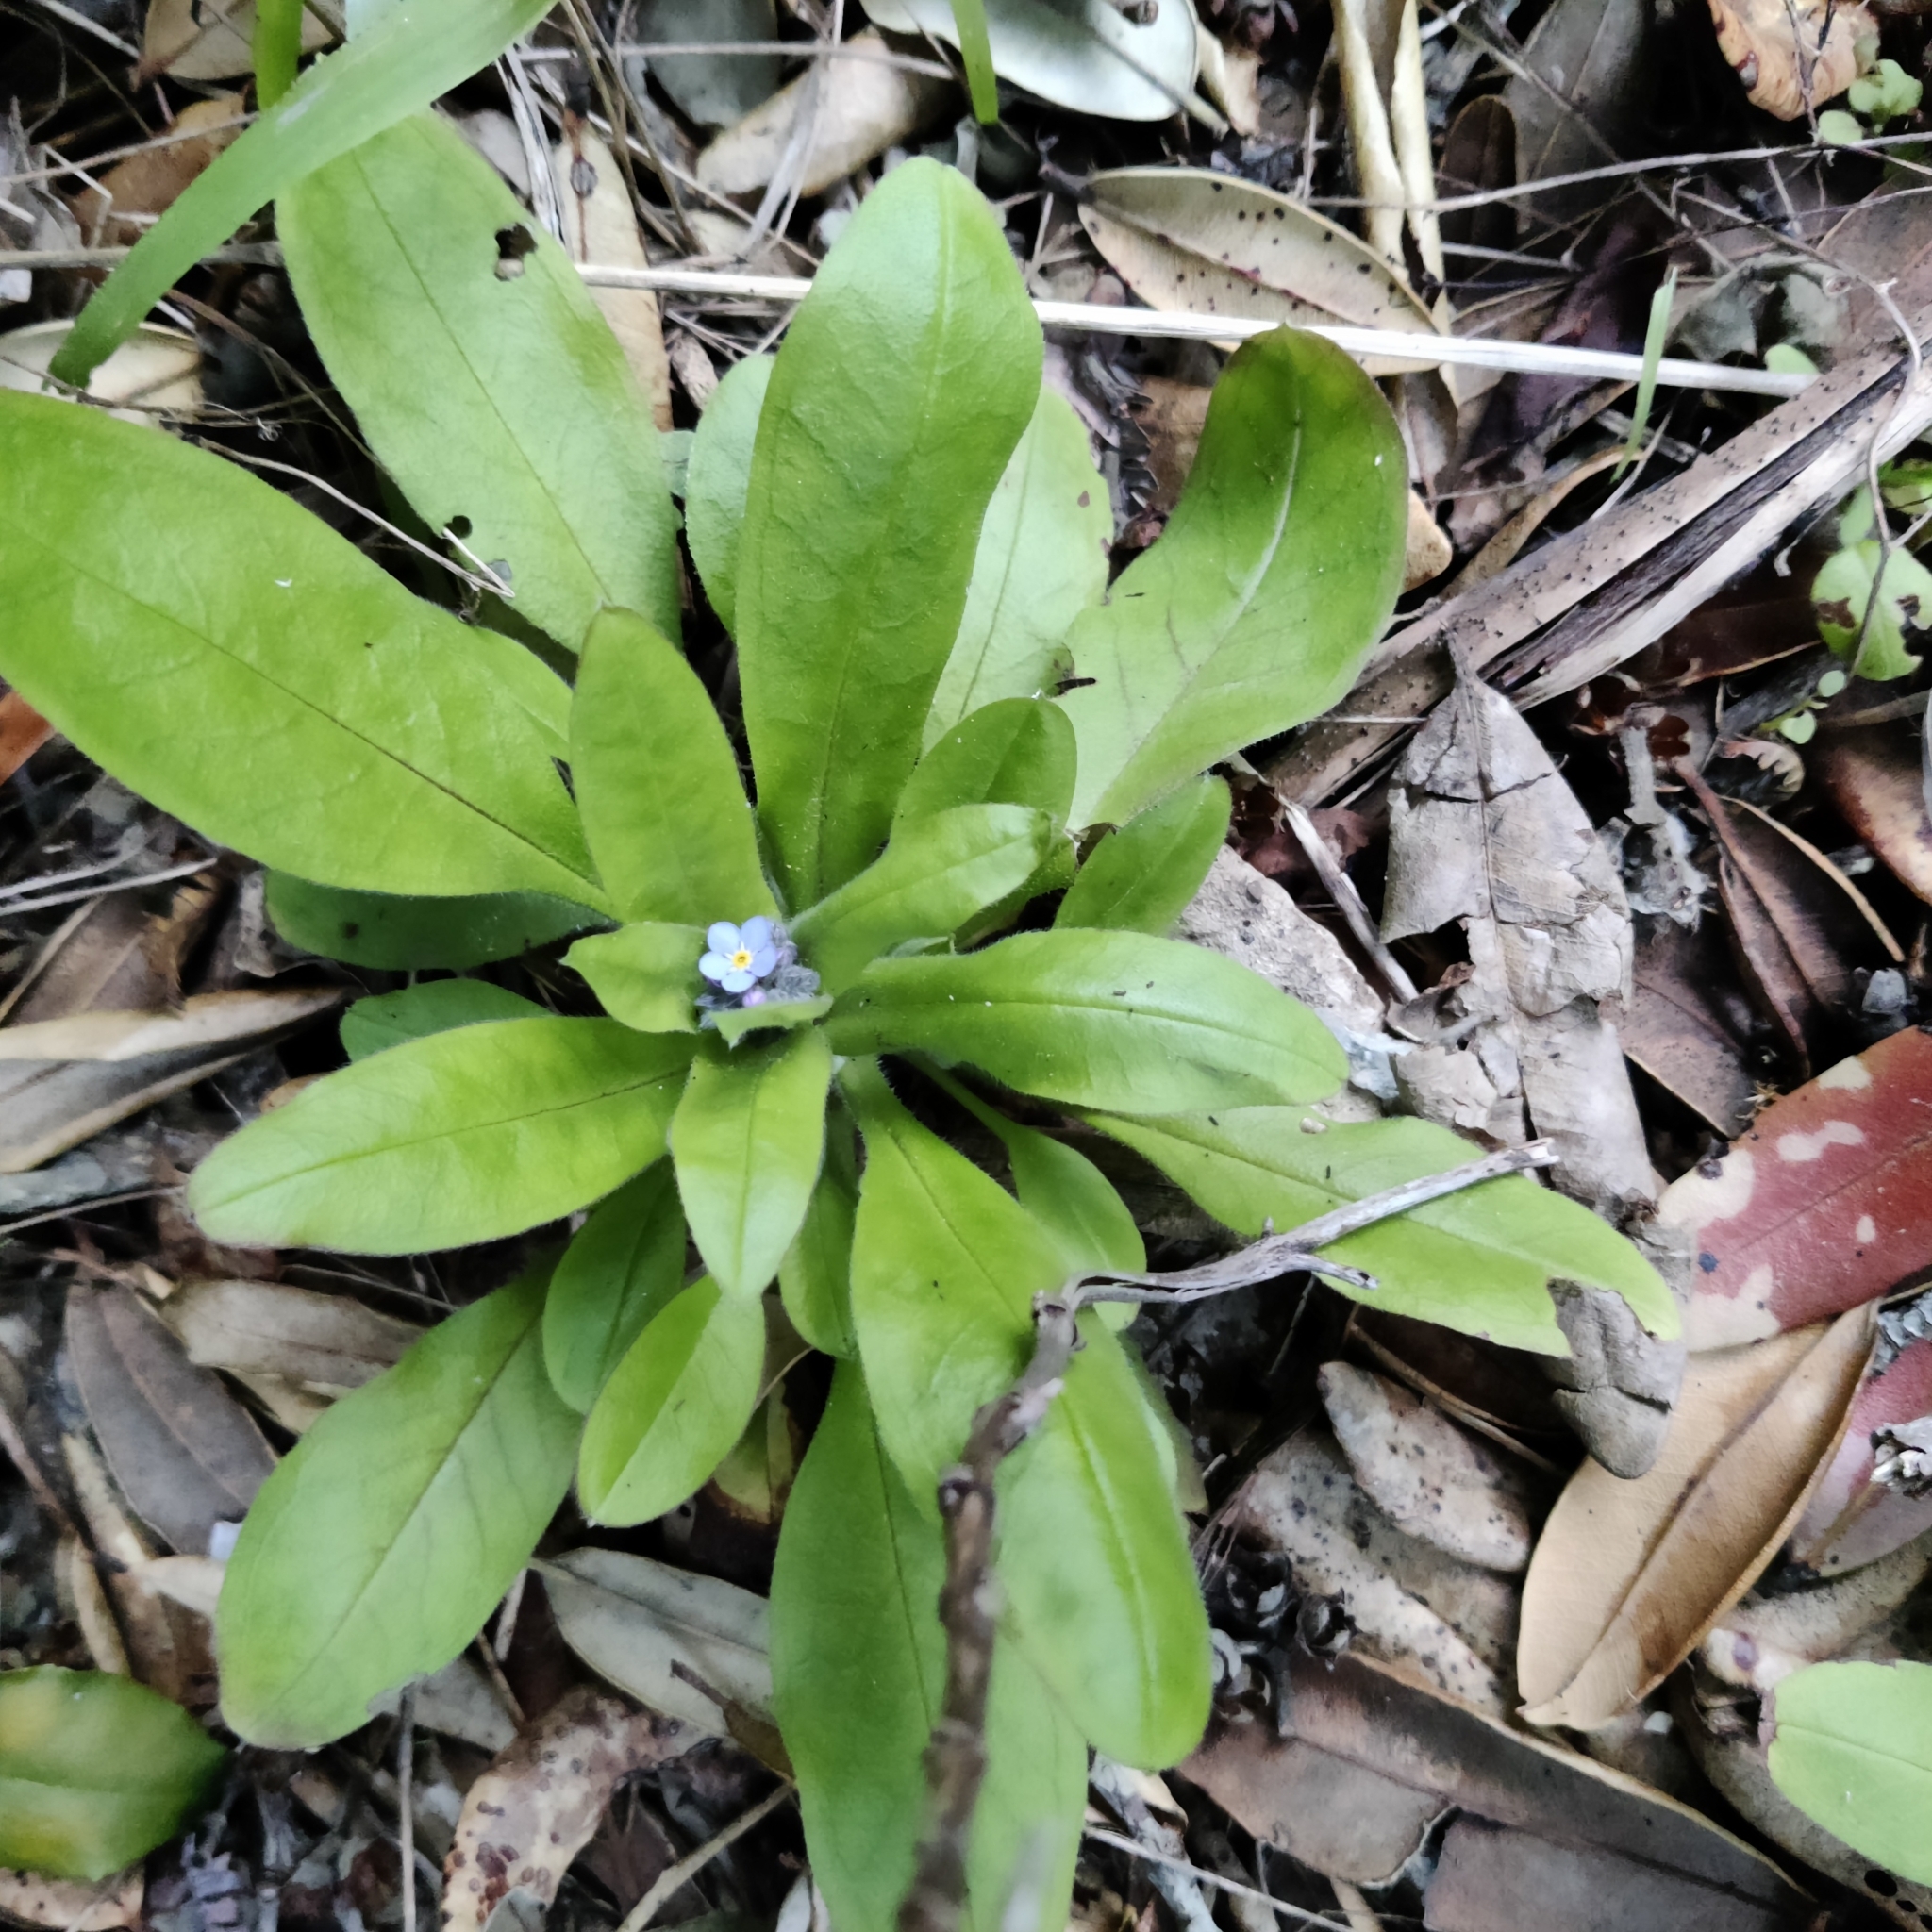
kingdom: Plantae
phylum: Tracheophyta
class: Magnoliopsida
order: Boraginales
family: Boraginaceae
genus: Myosotis
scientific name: Myosotis sylvatica
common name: Wood forget-me-not
